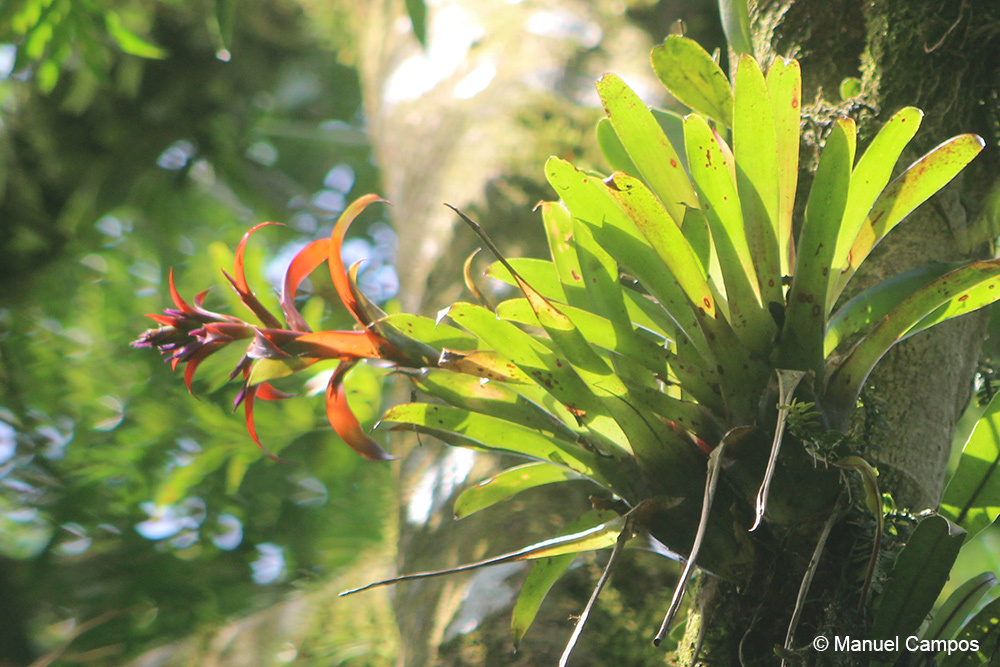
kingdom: Plantae
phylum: Tracheophyta
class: Liliopsida
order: Poales
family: Bromeliaceae
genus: Tillandsia
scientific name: Tillandsia leiboldiana
